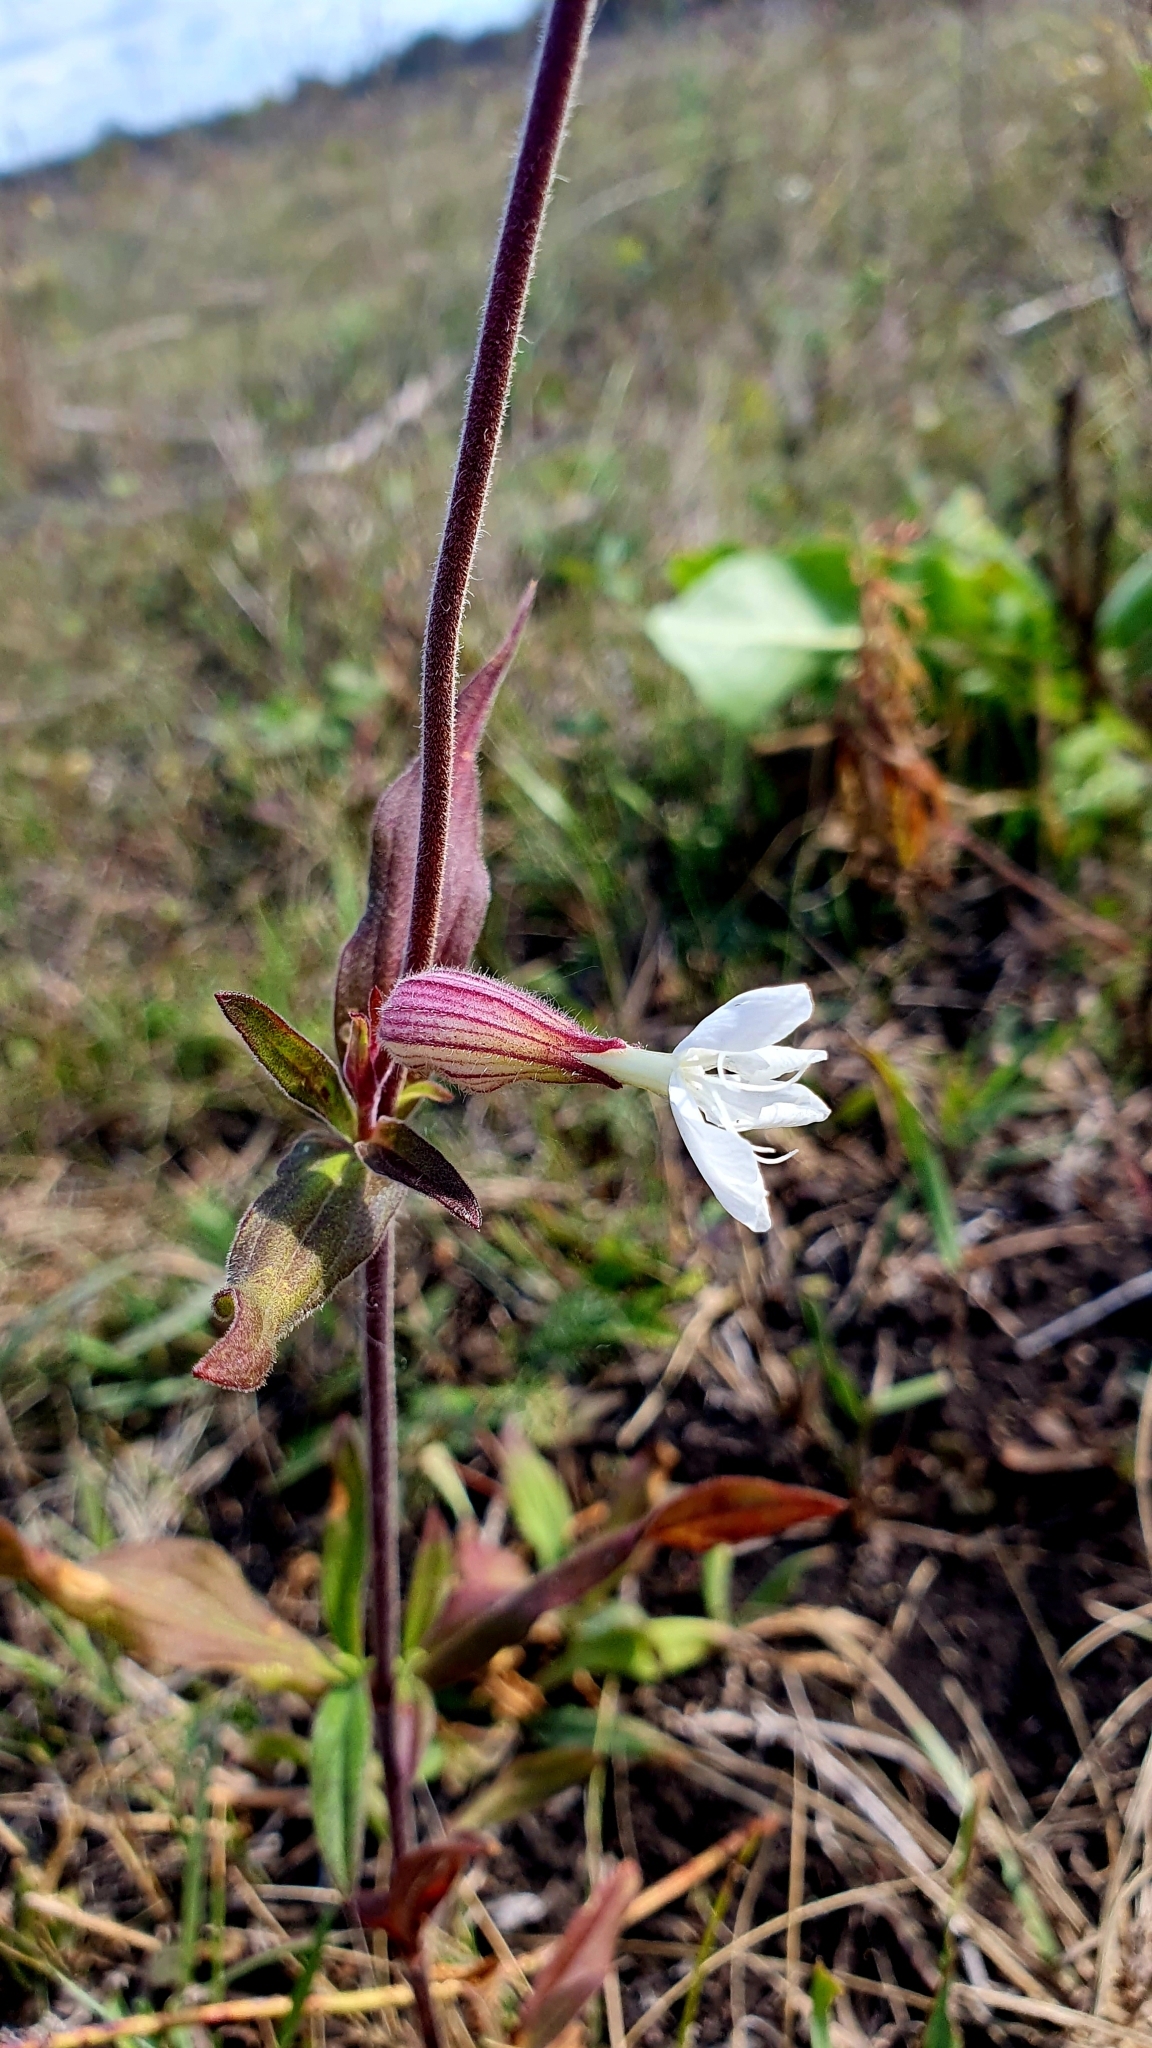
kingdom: Plantae
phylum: Tracheophyta
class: Magnoliopsida
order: Caryophyllales
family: Caryophyllaceae
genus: Silene
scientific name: Silene latifolia
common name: White campion
